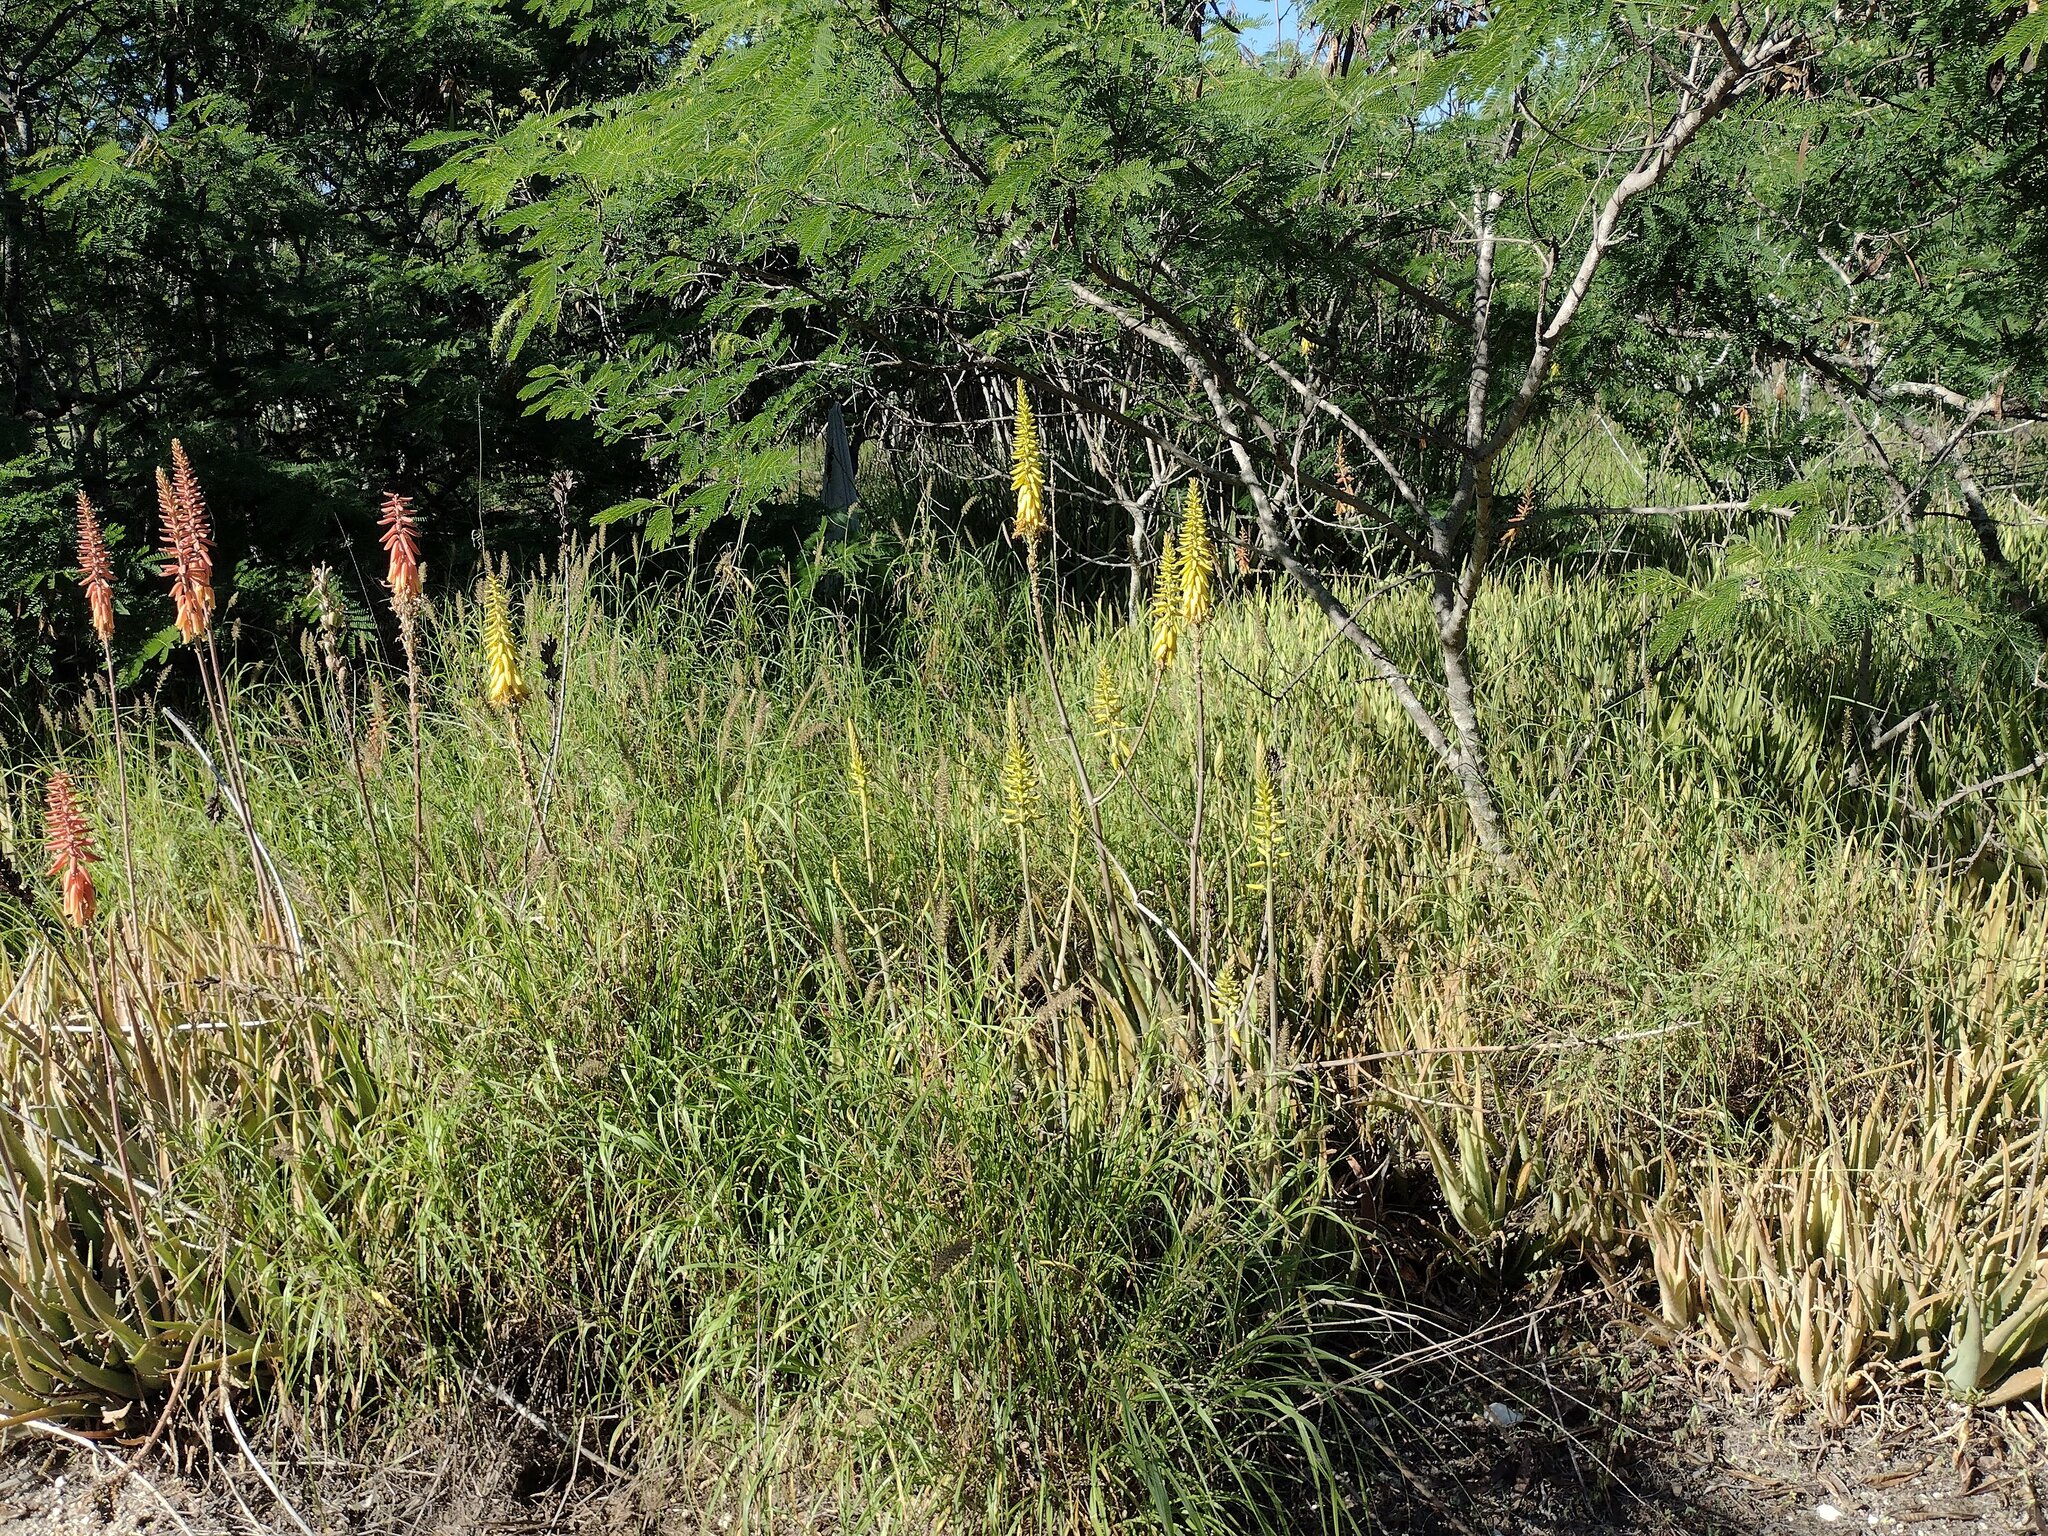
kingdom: Plantae
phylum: Tracheophyta
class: Liliopsida
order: Asparagales
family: Asphodelaceae
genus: Aloe
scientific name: Aloe vera
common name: Barbados aloe
